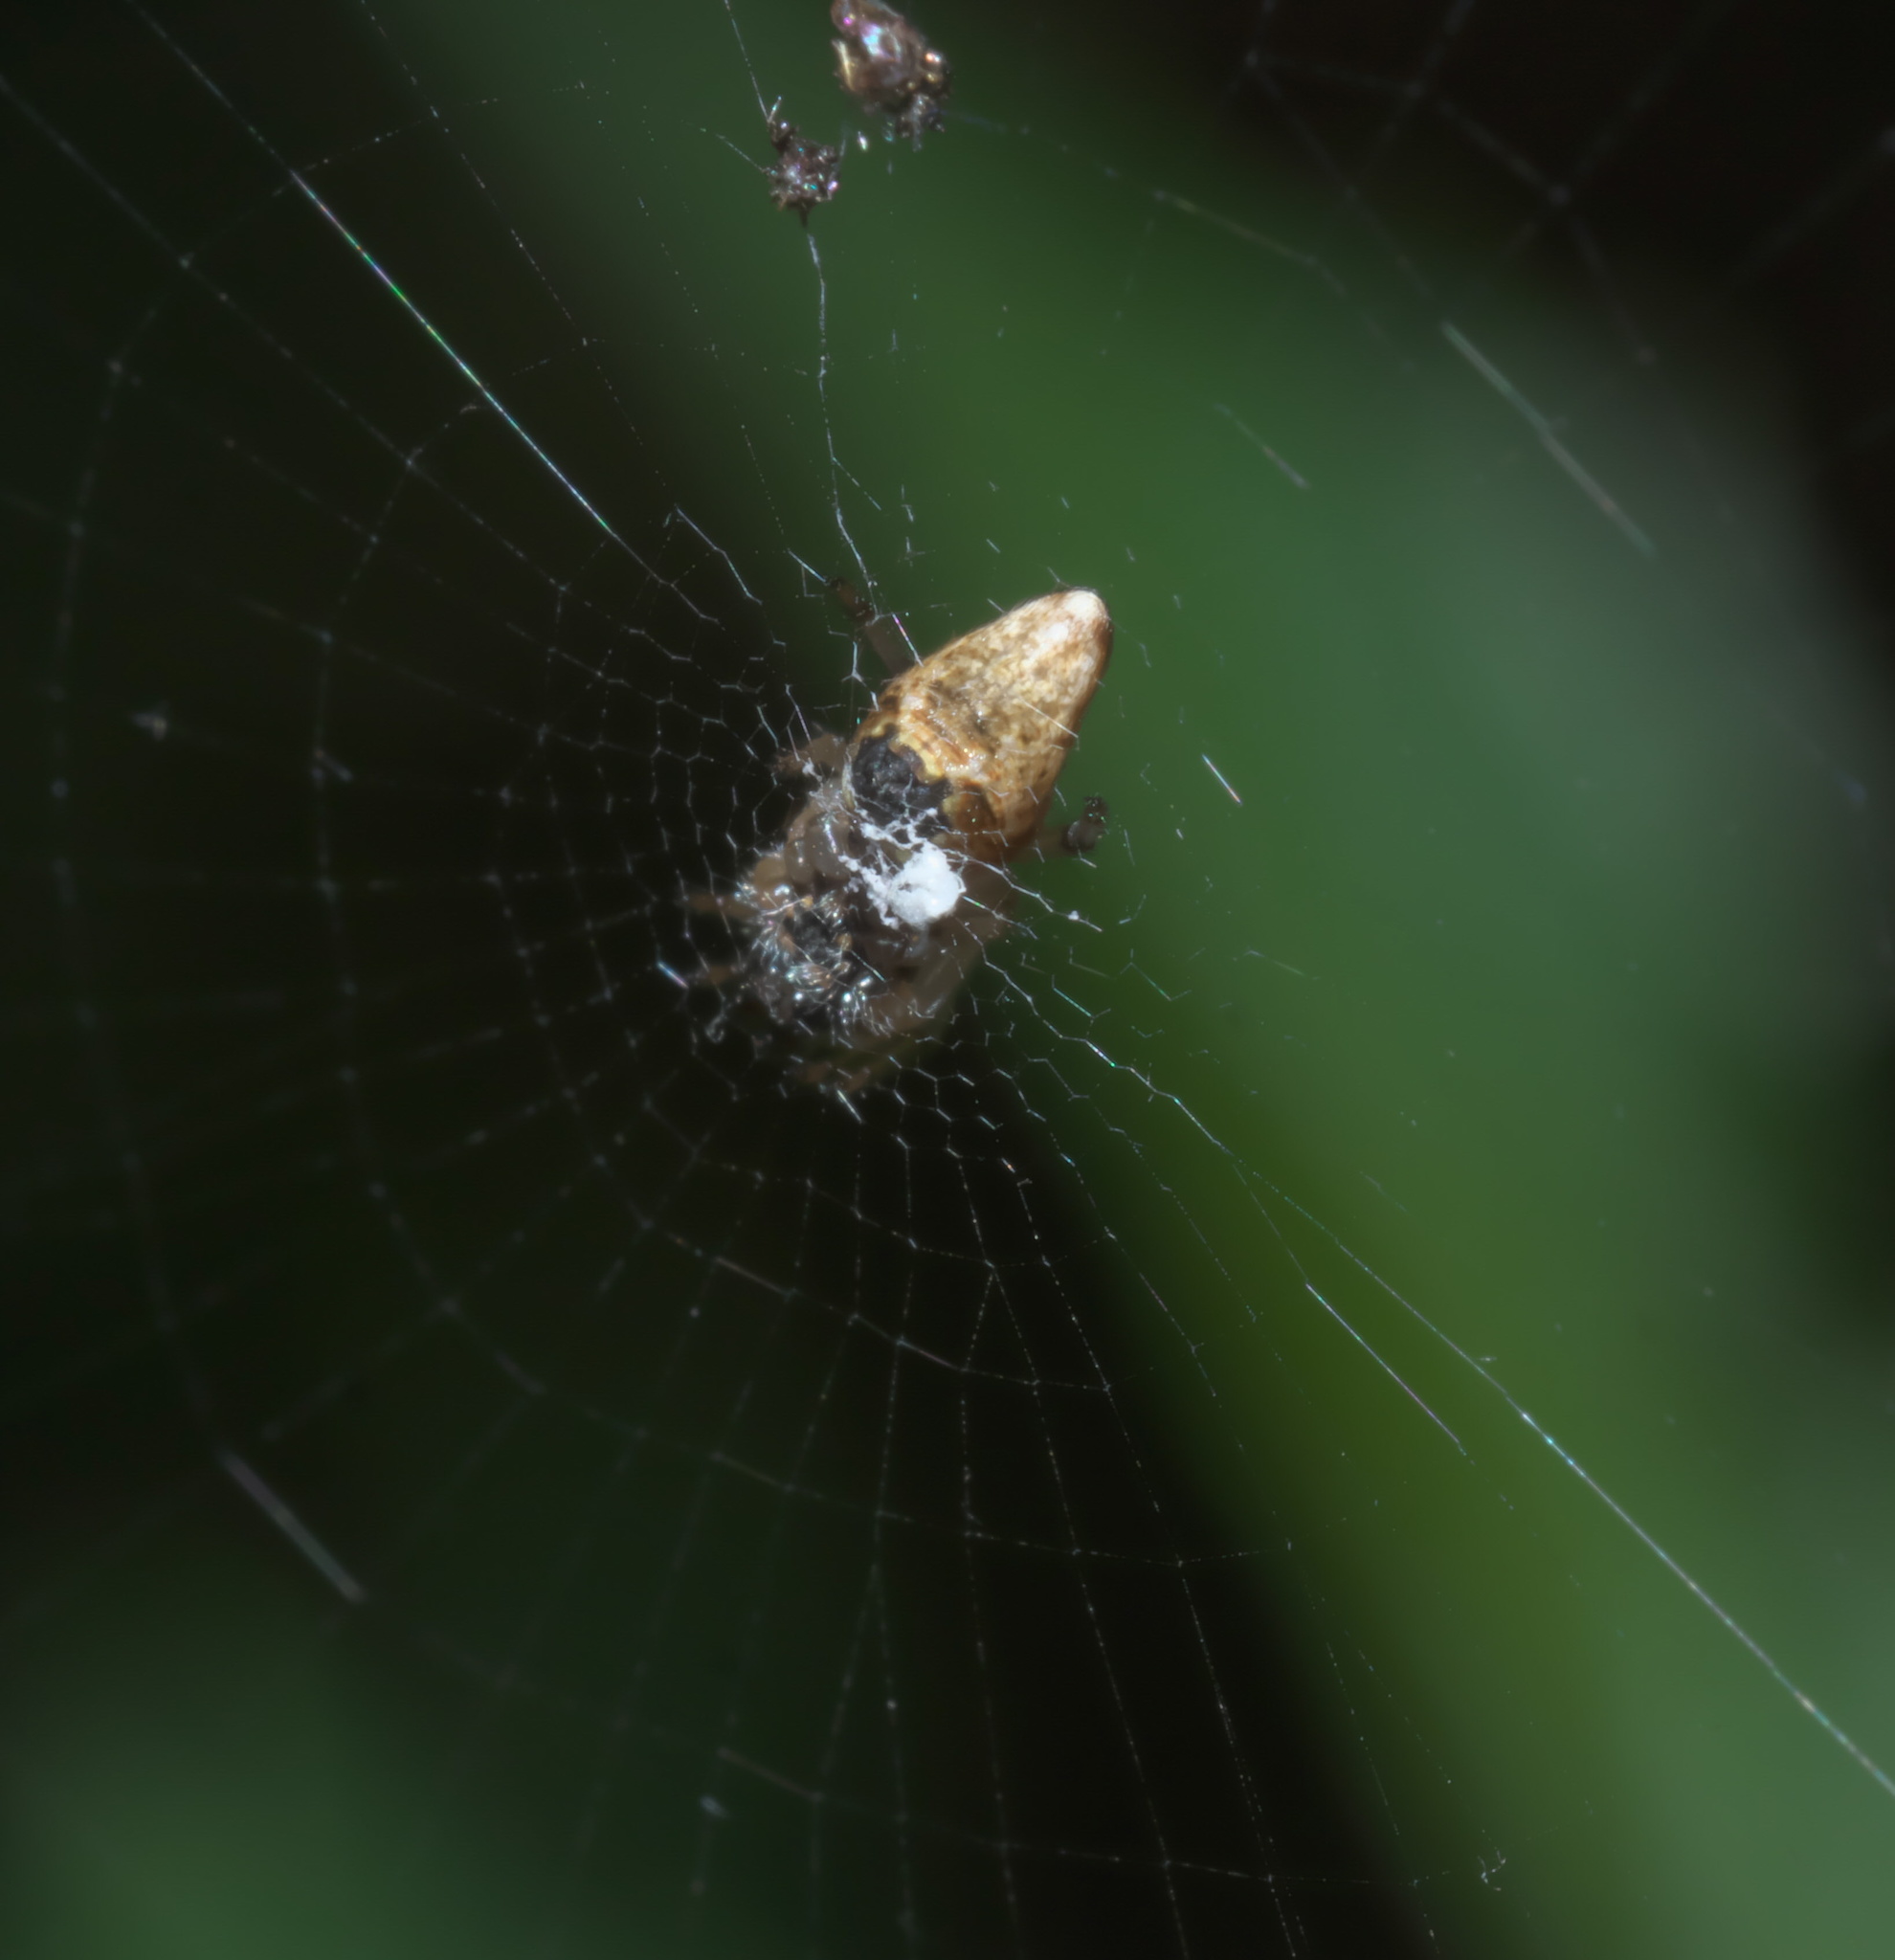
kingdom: Animalia
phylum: Arthropoda
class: Arachnida
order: Araneae
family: Araneidae
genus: Cyclosa
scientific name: Cyclosa turbinata
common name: Orb weavers
